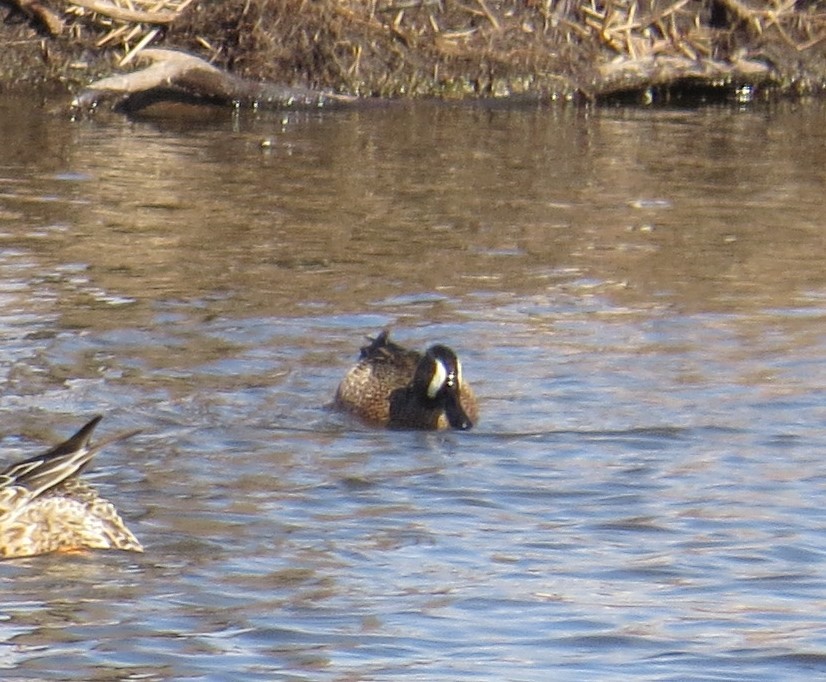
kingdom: Animalia
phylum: Chordata
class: Aves
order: Anseriformes
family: Anatidae
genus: Spatula
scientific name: Spatula discors
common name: Blue-winged teal
